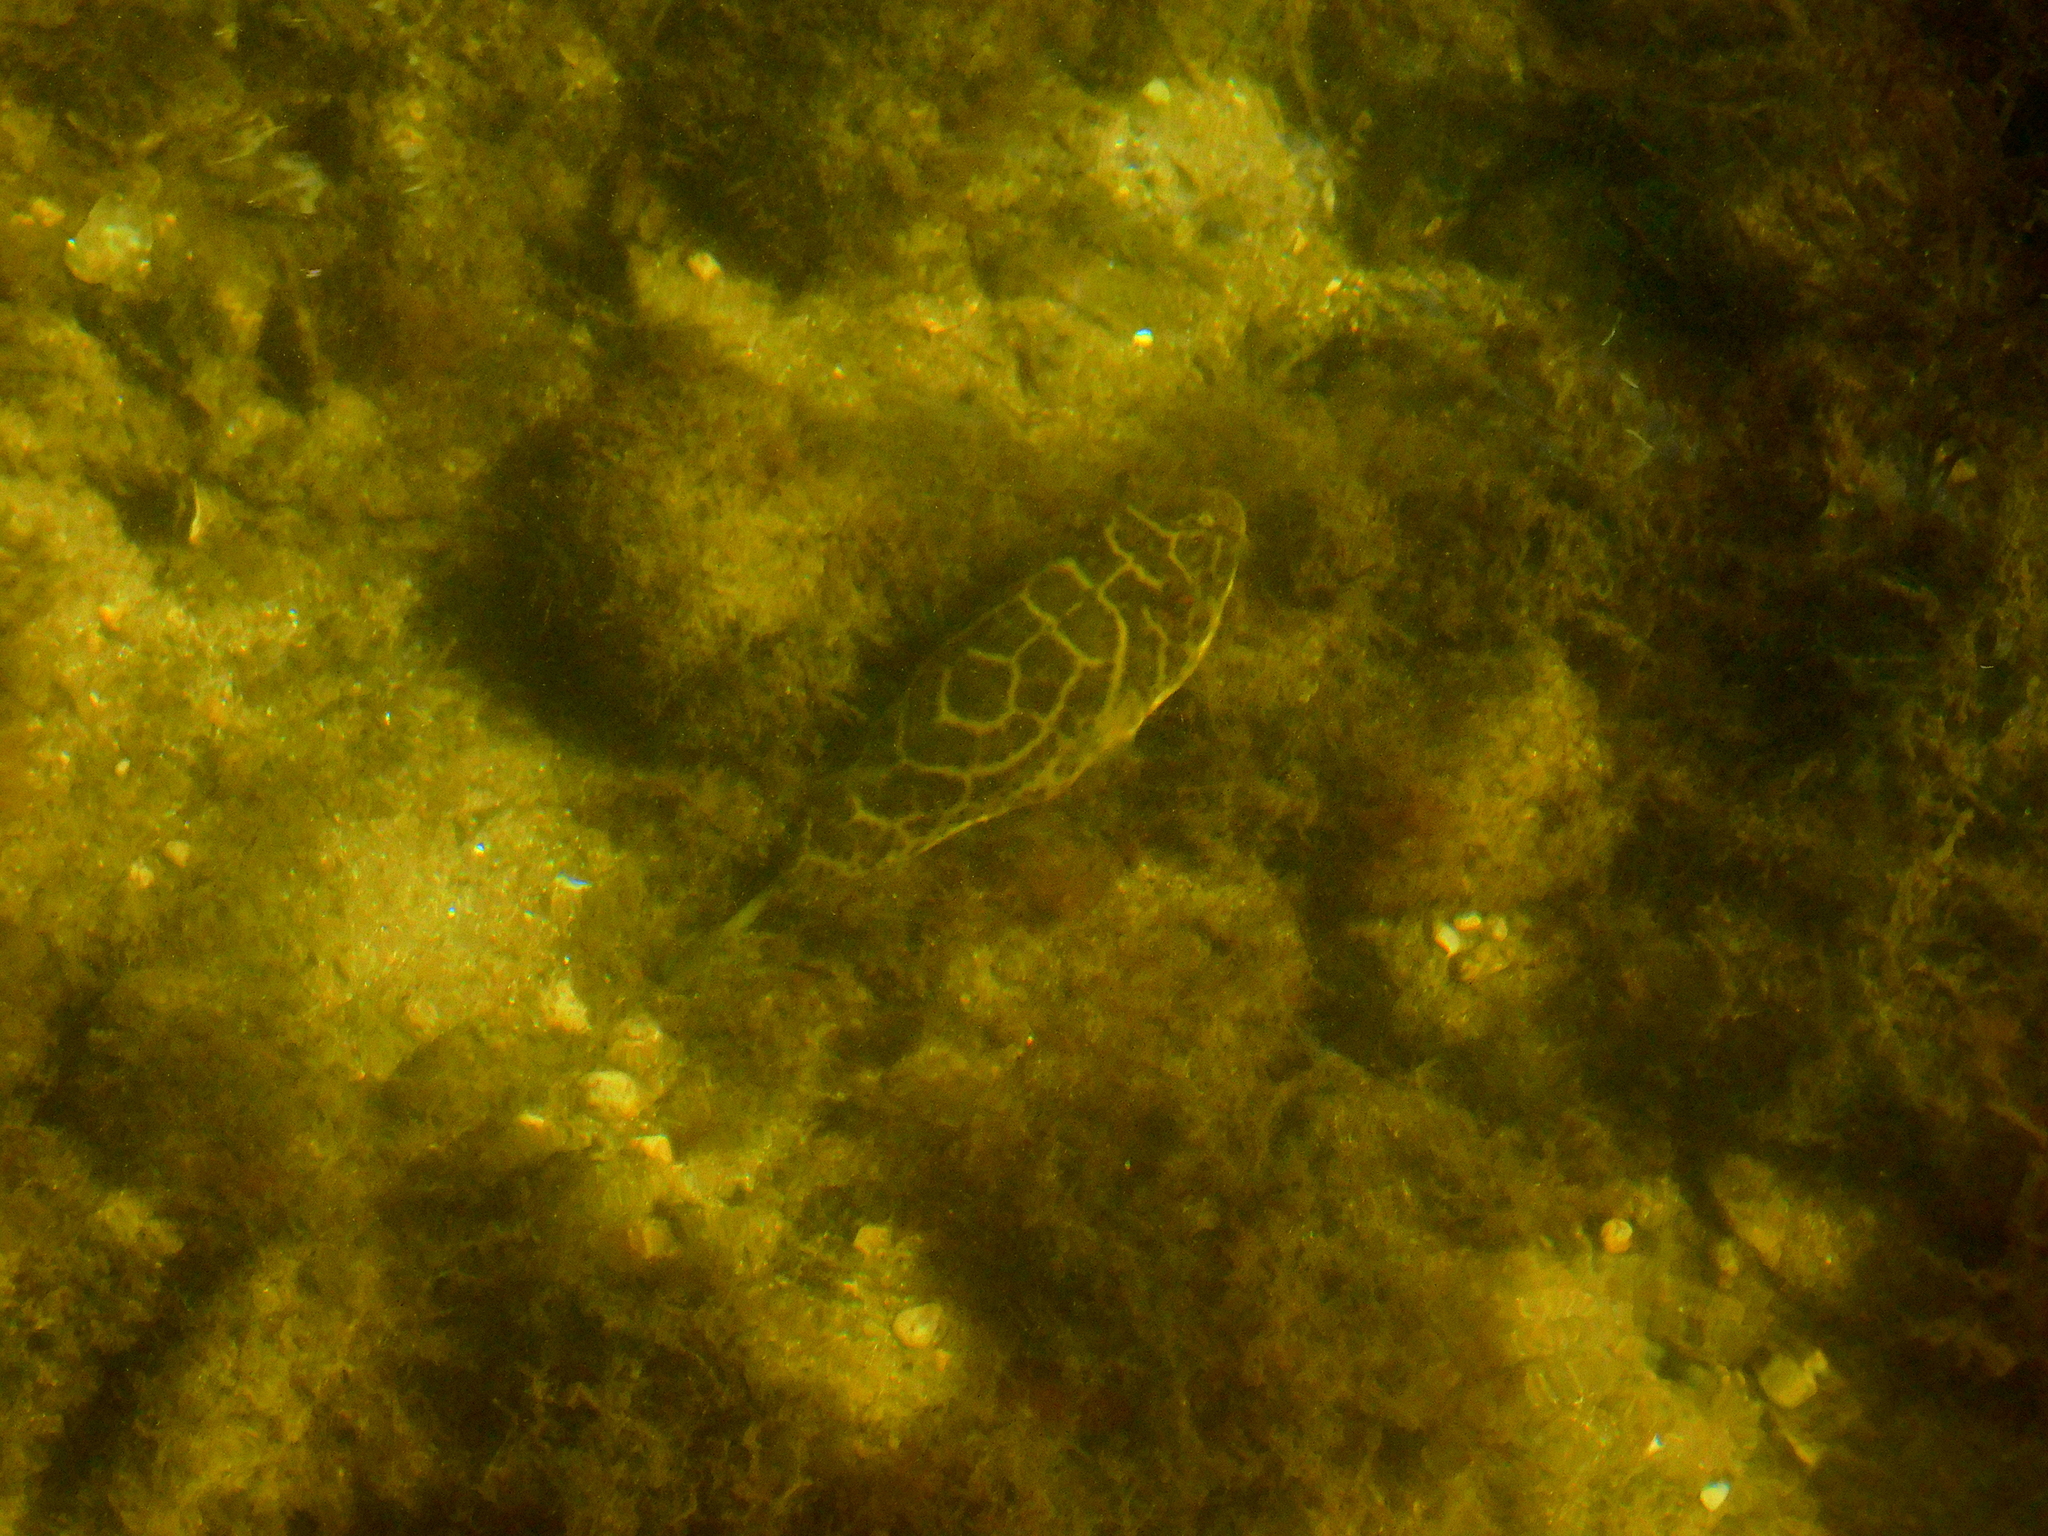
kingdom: Animalia
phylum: Chordata
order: Tetraodontiformes
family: Tetraodontidae
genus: Sphoeroides
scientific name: Sphoeroides testudineus
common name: Checkered puffer
